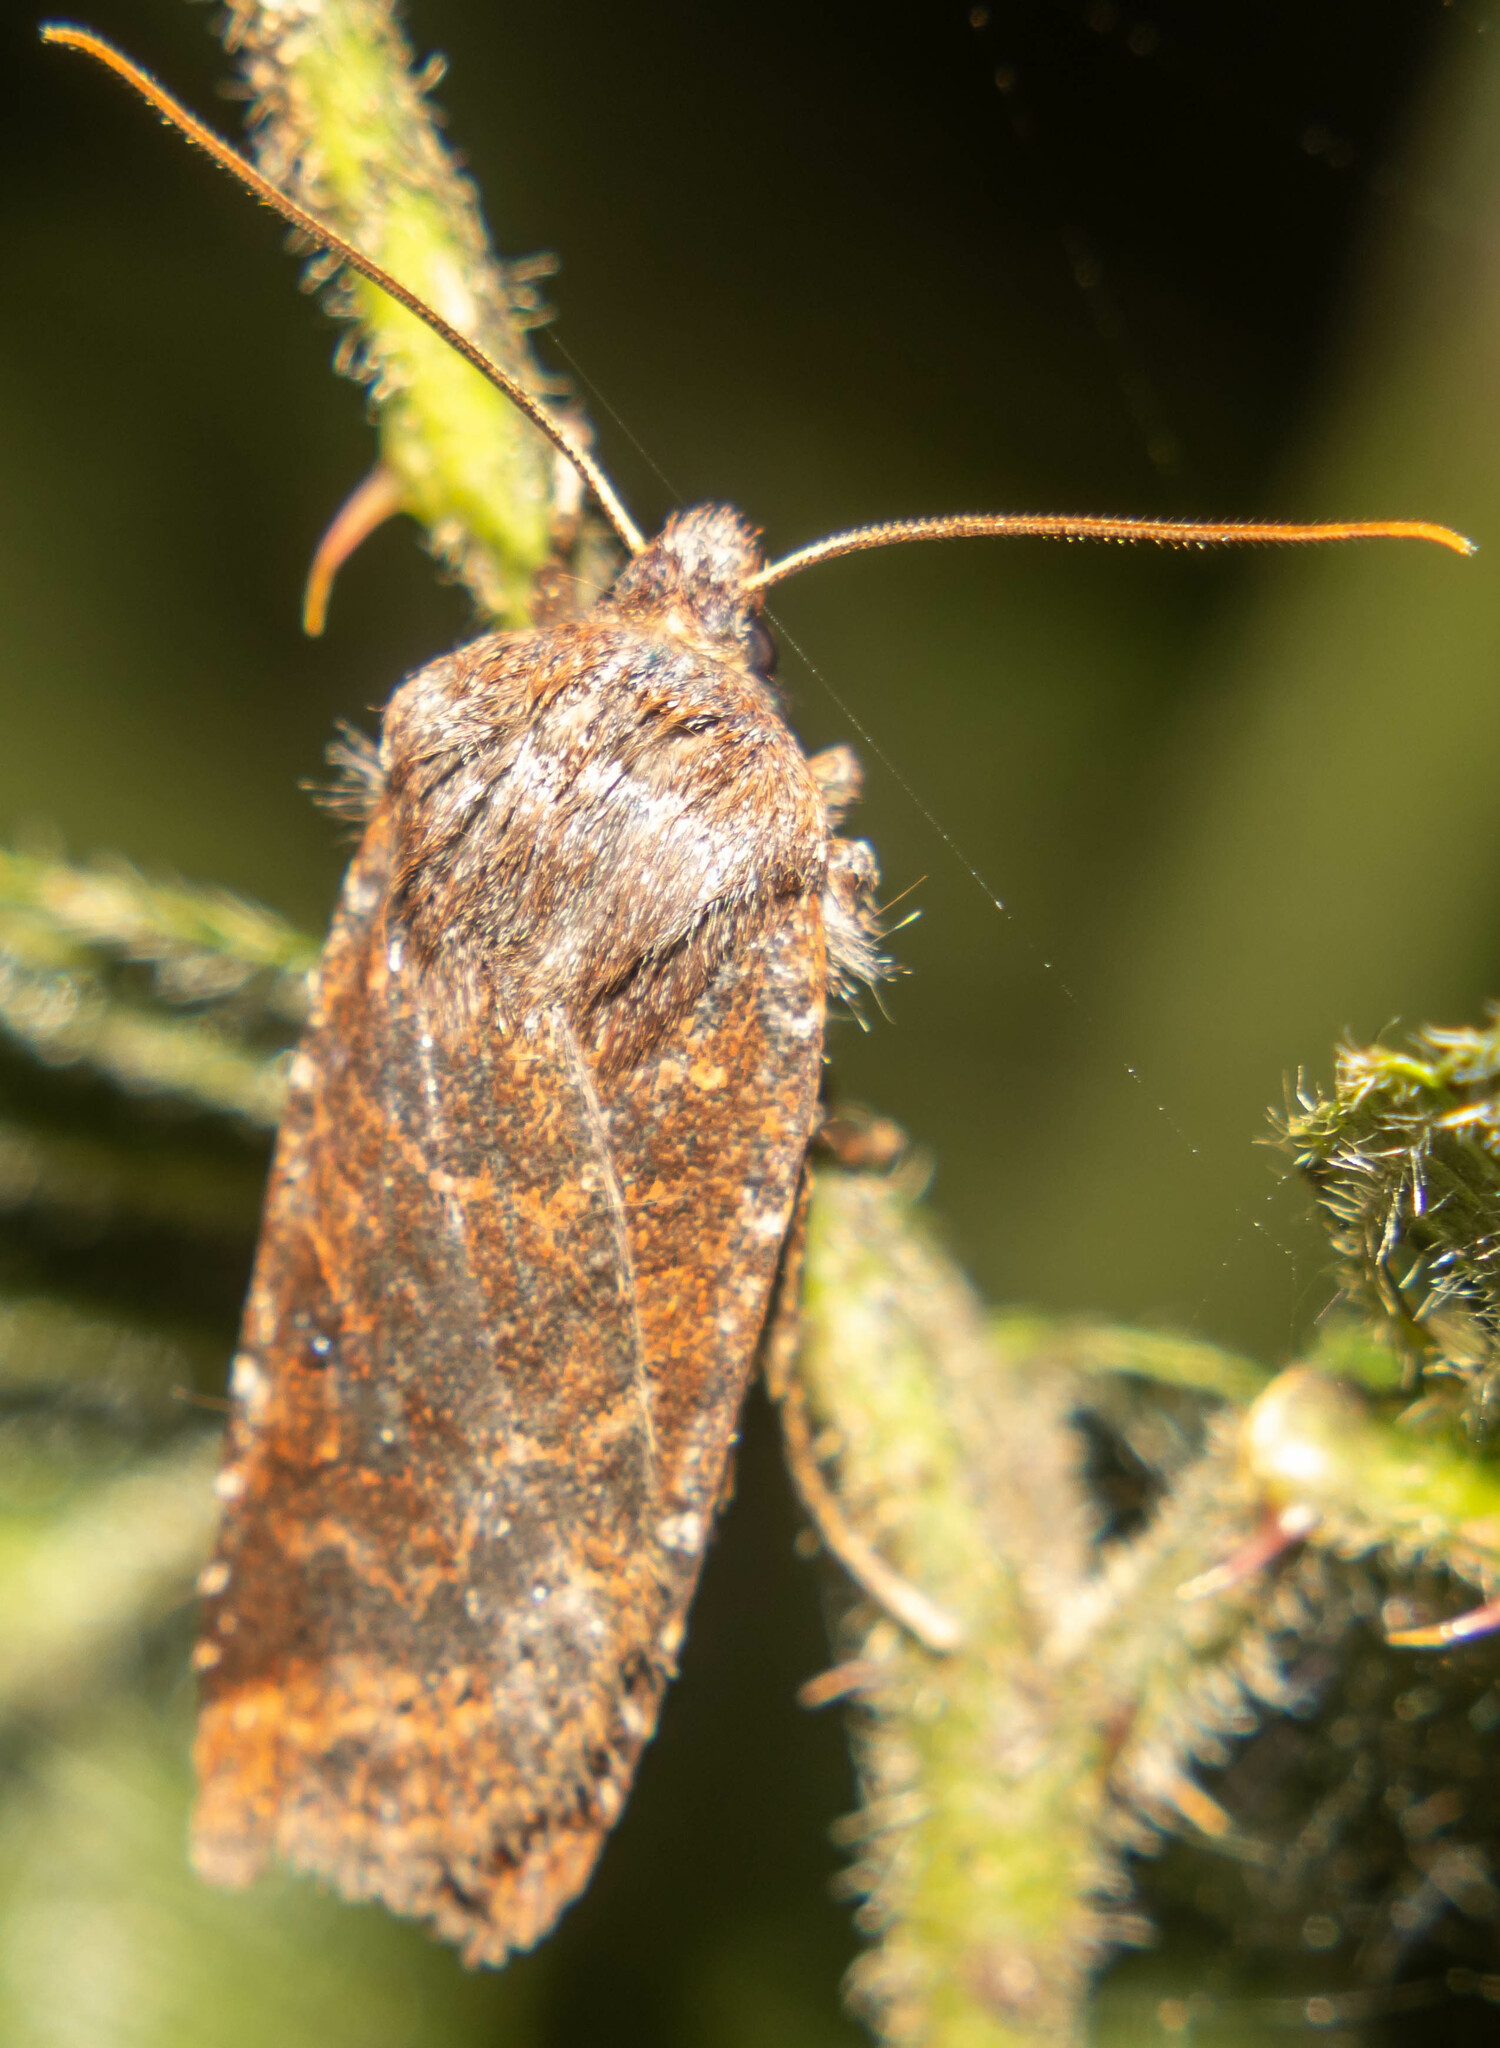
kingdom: Animalia
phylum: Arthropoda
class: Insecta
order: Lepidoptera
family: Noctuidae
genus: Conistra
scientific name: Conistra vaccinii
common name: Chestnut
